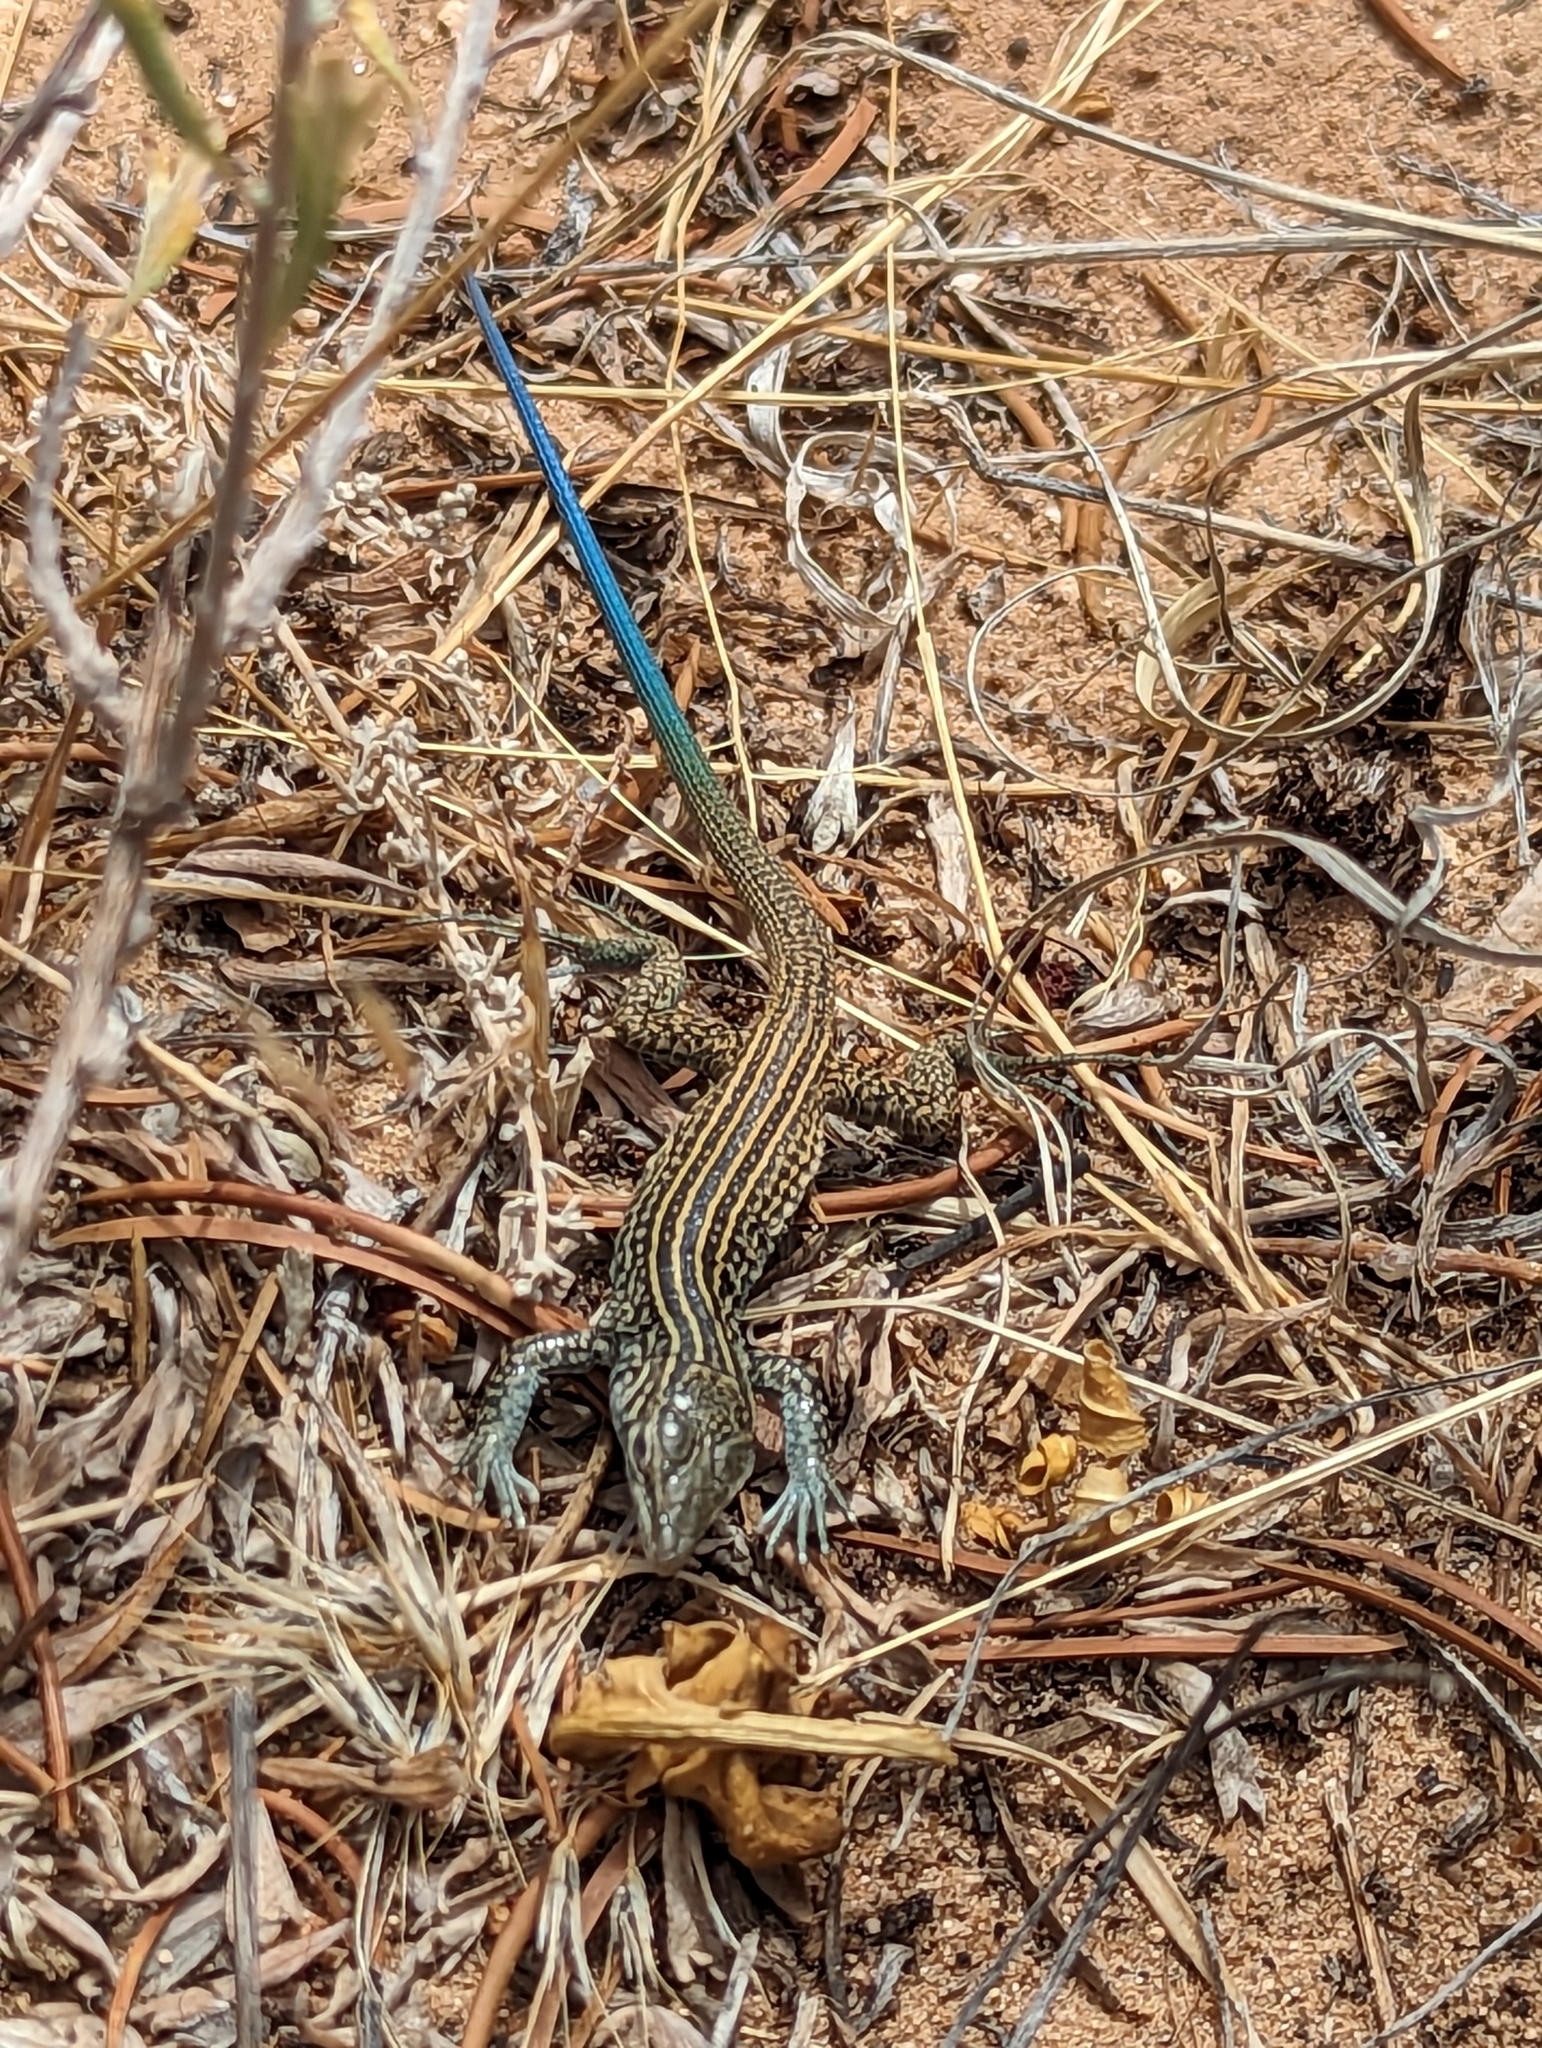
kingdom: Animalia
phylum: Chordata
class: Squamata
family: Teiidae
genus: Aspidoscelis
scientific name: Aspidoscelis tigris
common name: Tiger whiptail
